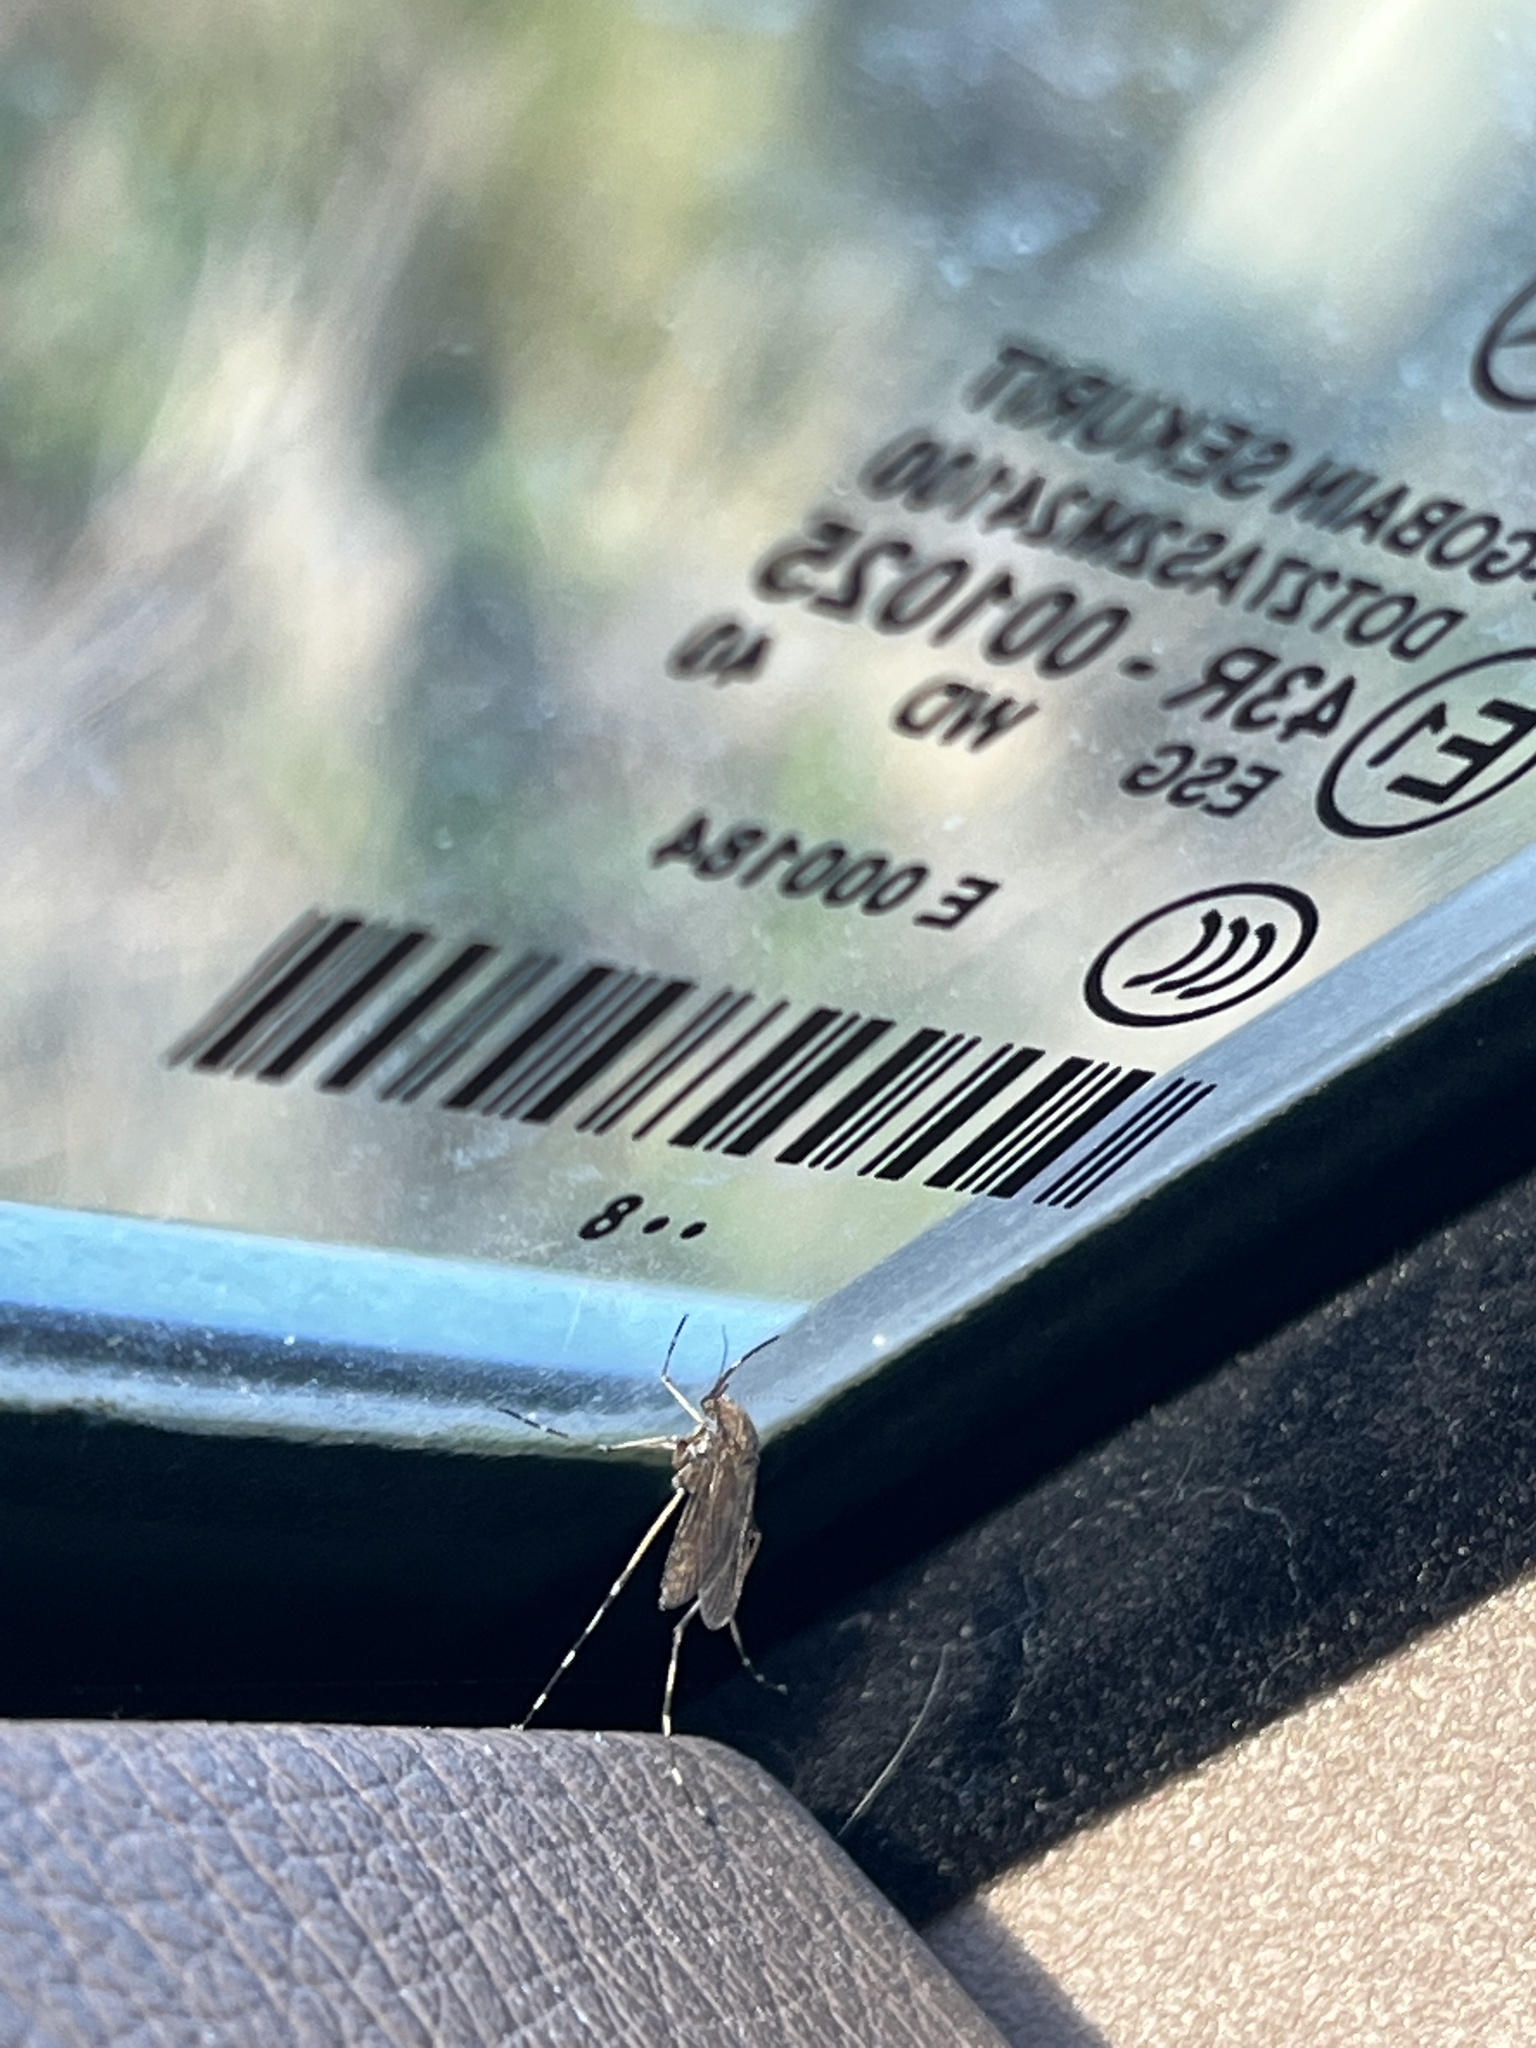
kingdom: Animalia
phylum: Arthropoda
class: Insecta
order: Diptera
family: Culicidae
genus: Aedes
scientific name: Aedes sollicitans
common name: Saltmarsh mosquito
